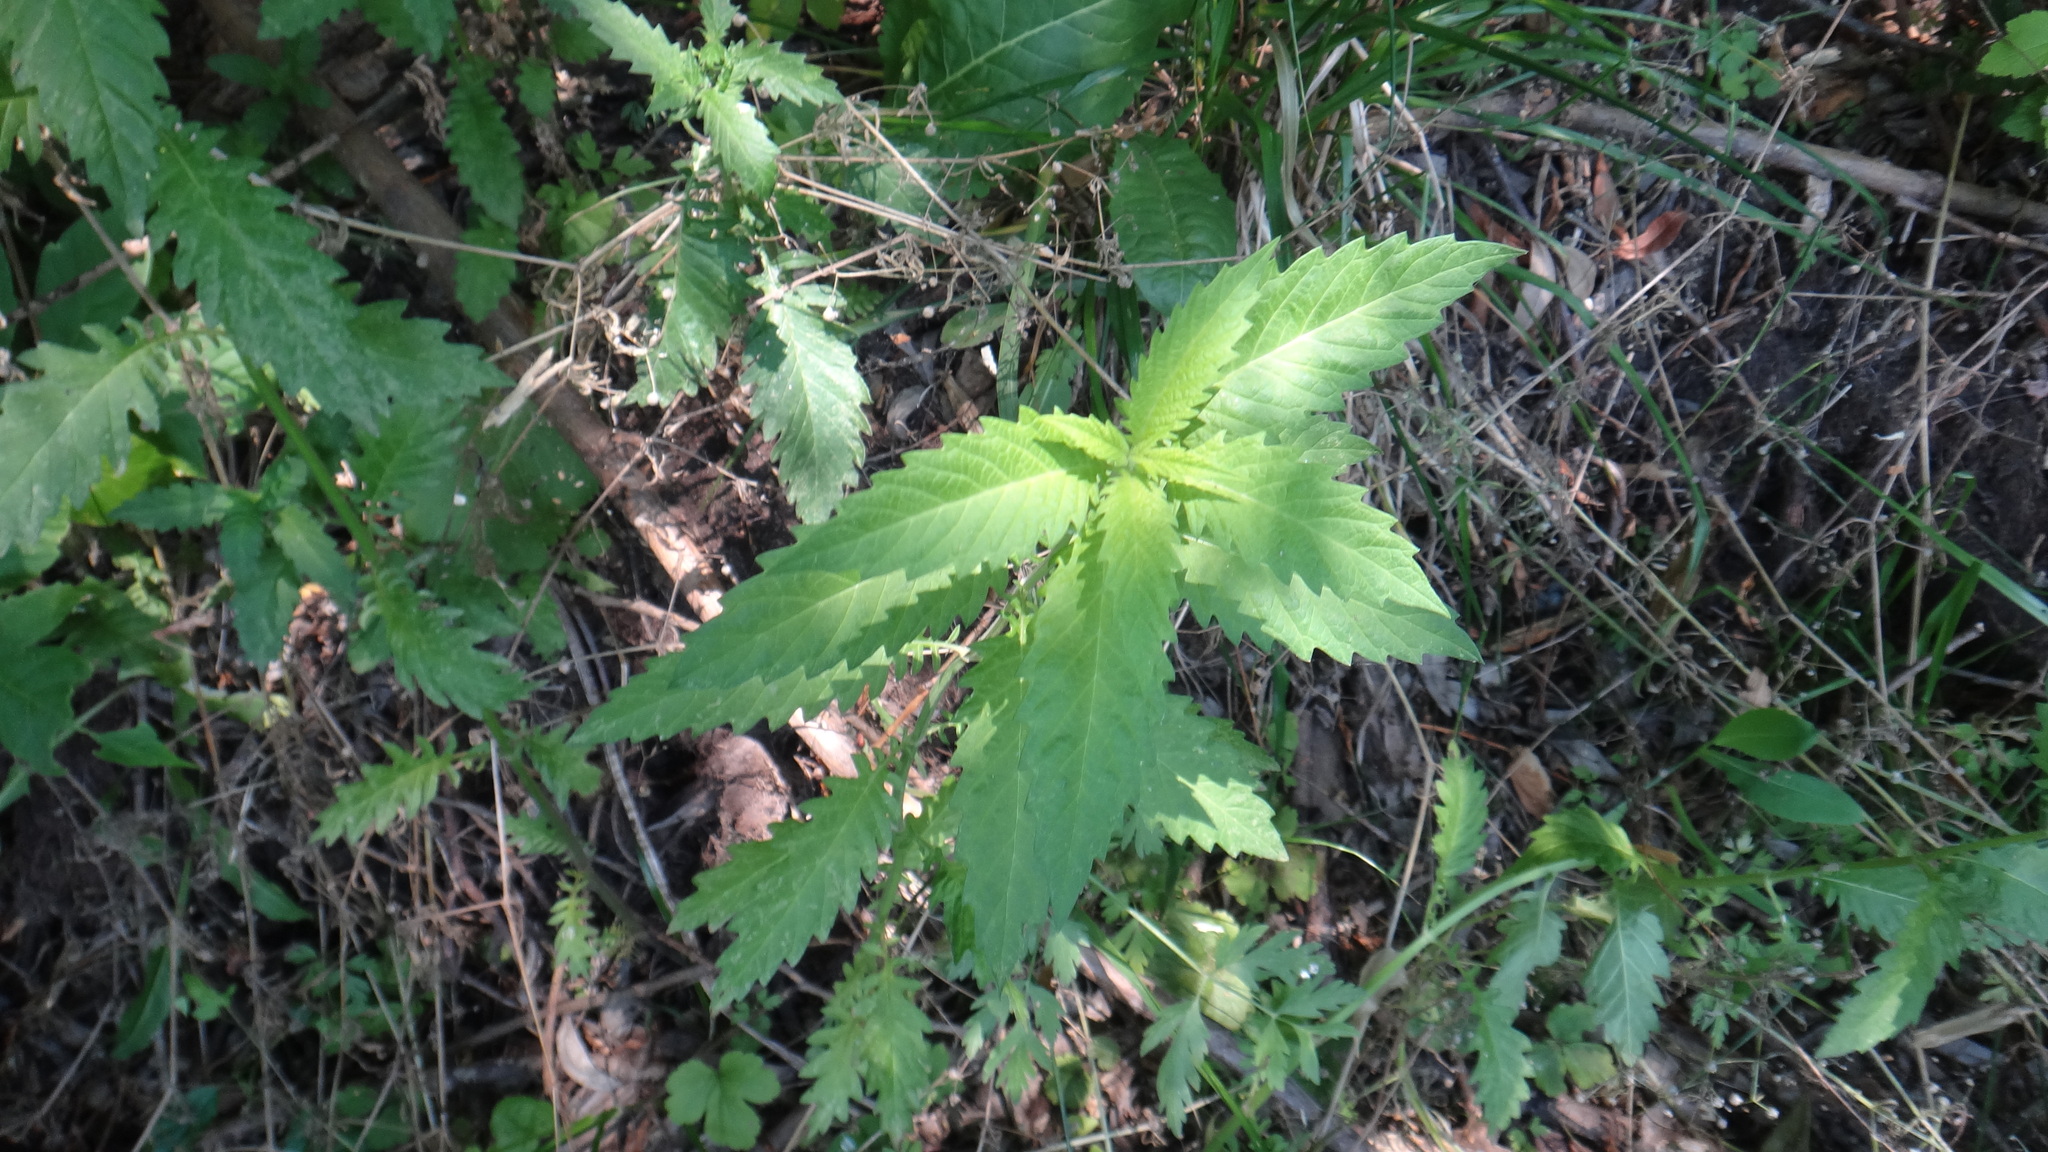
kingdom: Plantae
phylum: Tracheophyta
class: Magnoliopsida
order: Lamiales
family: Lamiaceae
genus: Lycopus
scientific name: Lycopus europaeus
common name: European bugleweed
